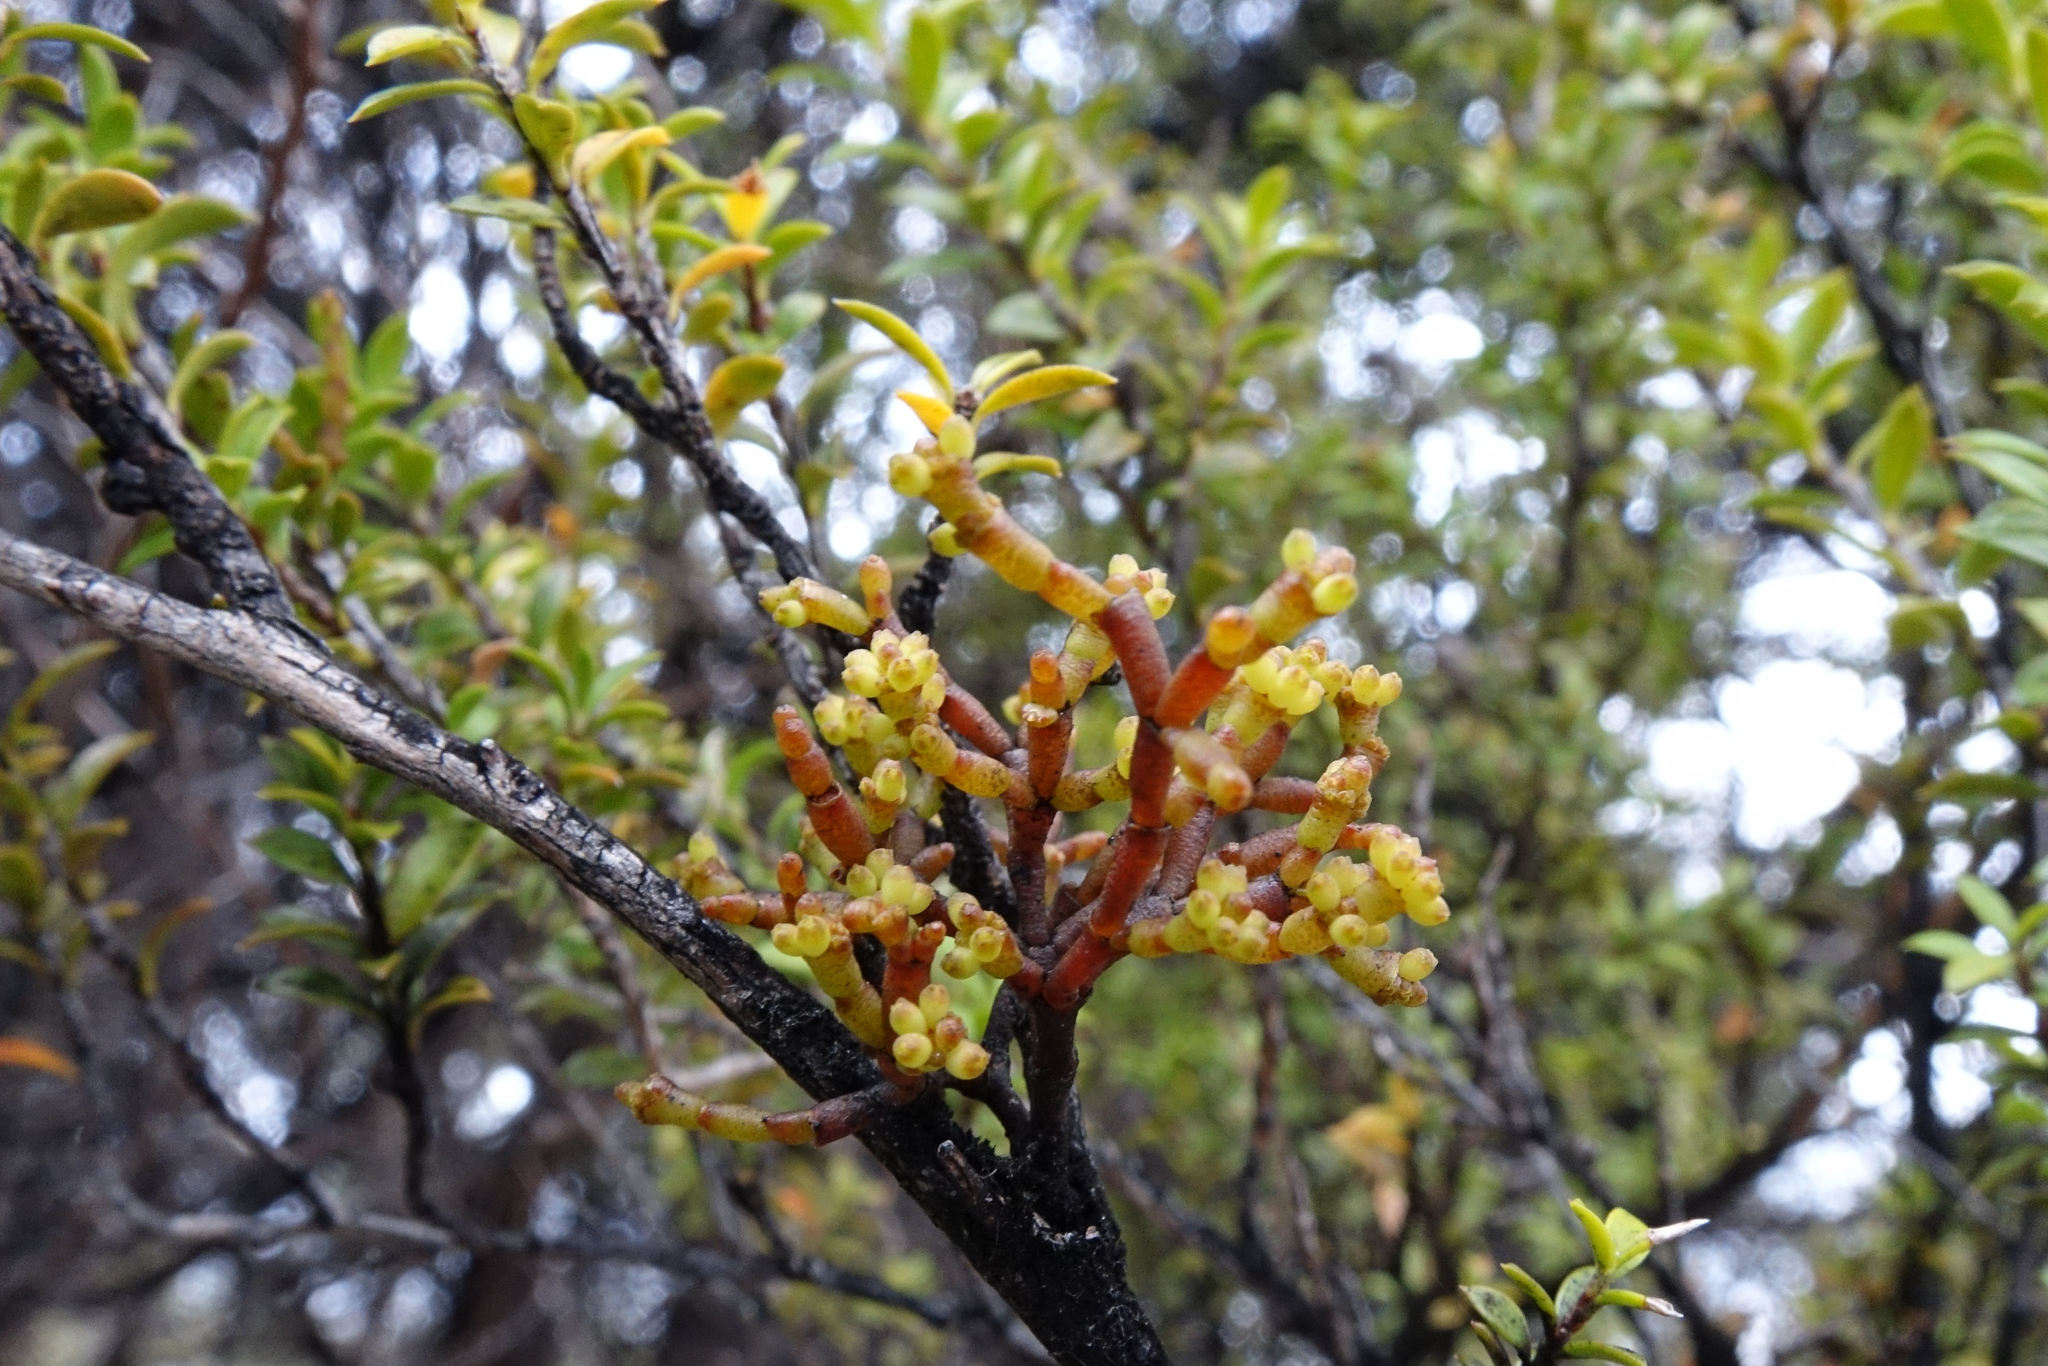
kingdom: Plantae
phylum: Tracheophyta
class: Magnoliopsida
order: Santalales
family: Viscaceae
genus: Korthalsella
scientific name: Korthalsella salicornioides
